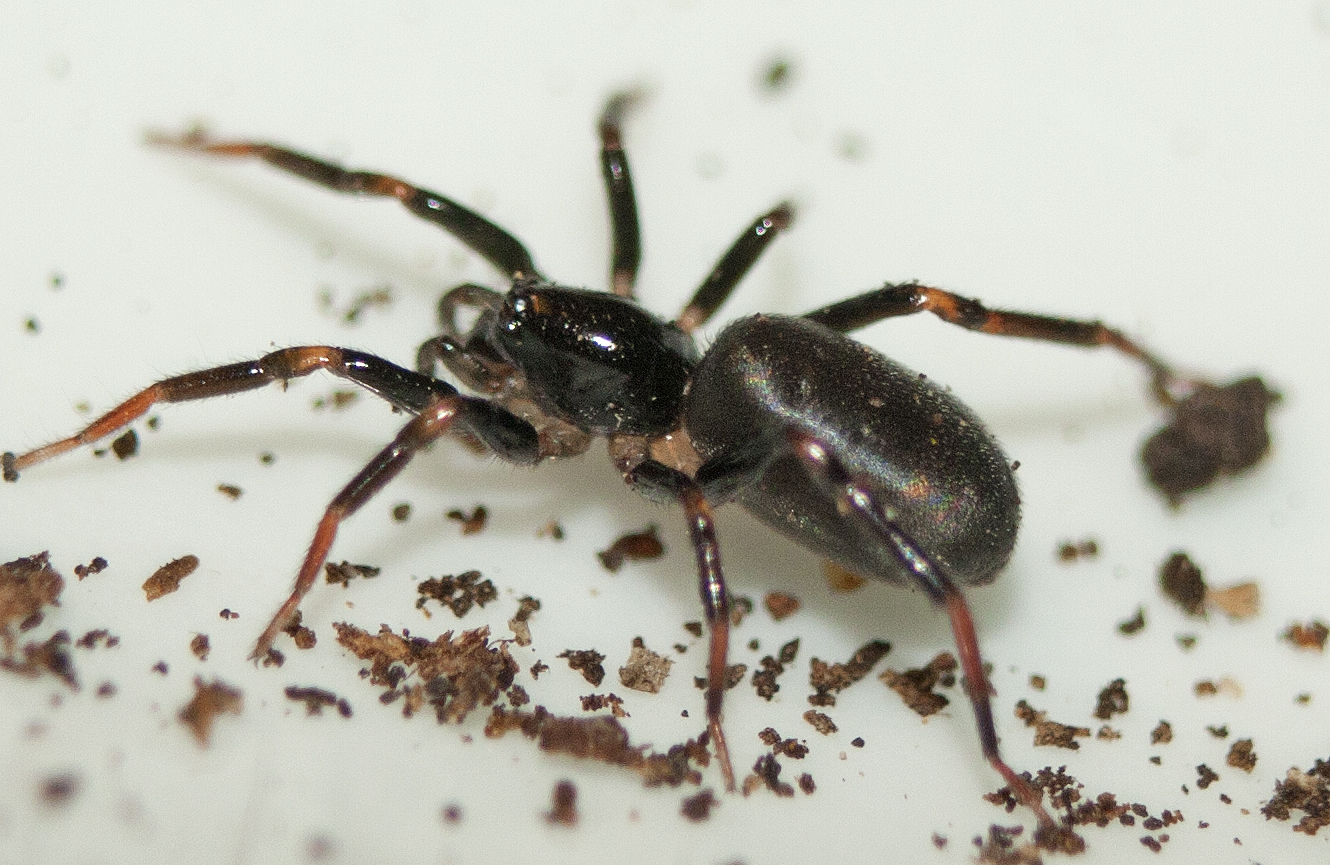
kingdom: Animalia
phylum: Arthropoda
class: Arachnida
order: Araneae
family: Trachycosmidae
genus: Neato
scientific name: Neato beerwah
